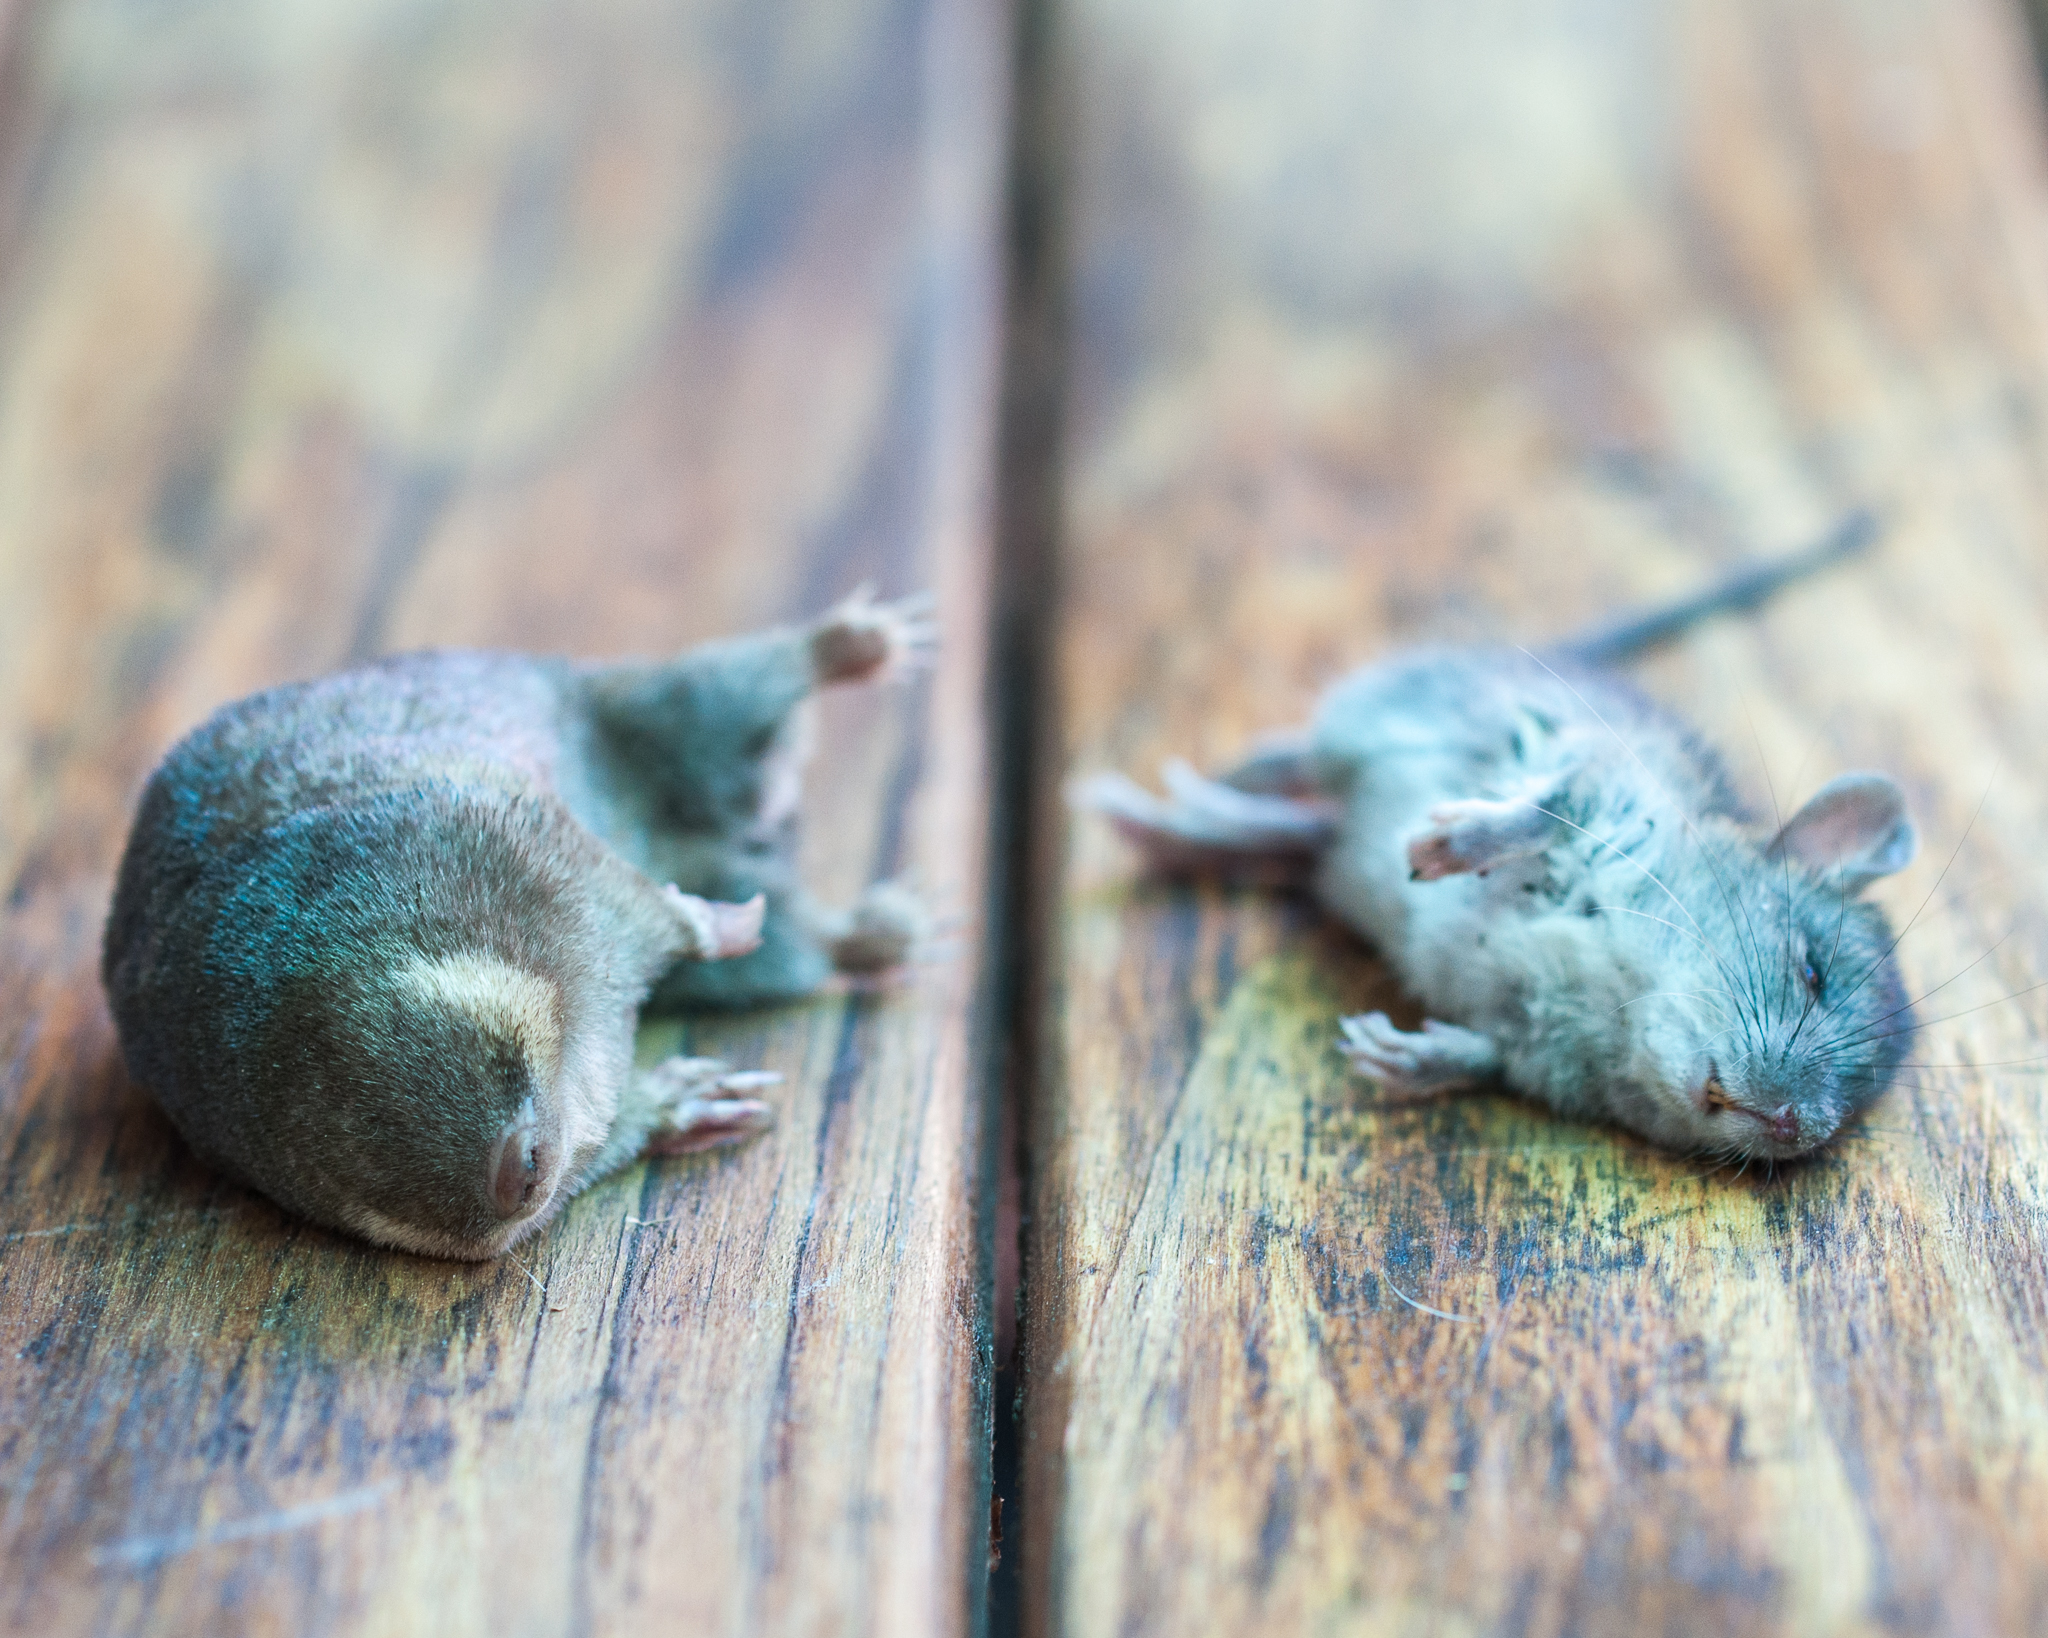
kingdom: Animalia
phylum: Chordata
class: Mammalia
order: Afrosoricida
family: Chrysochloridae
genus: Chrysochloris
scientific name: Chrysochloris asiatica
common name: Cape golden mole
